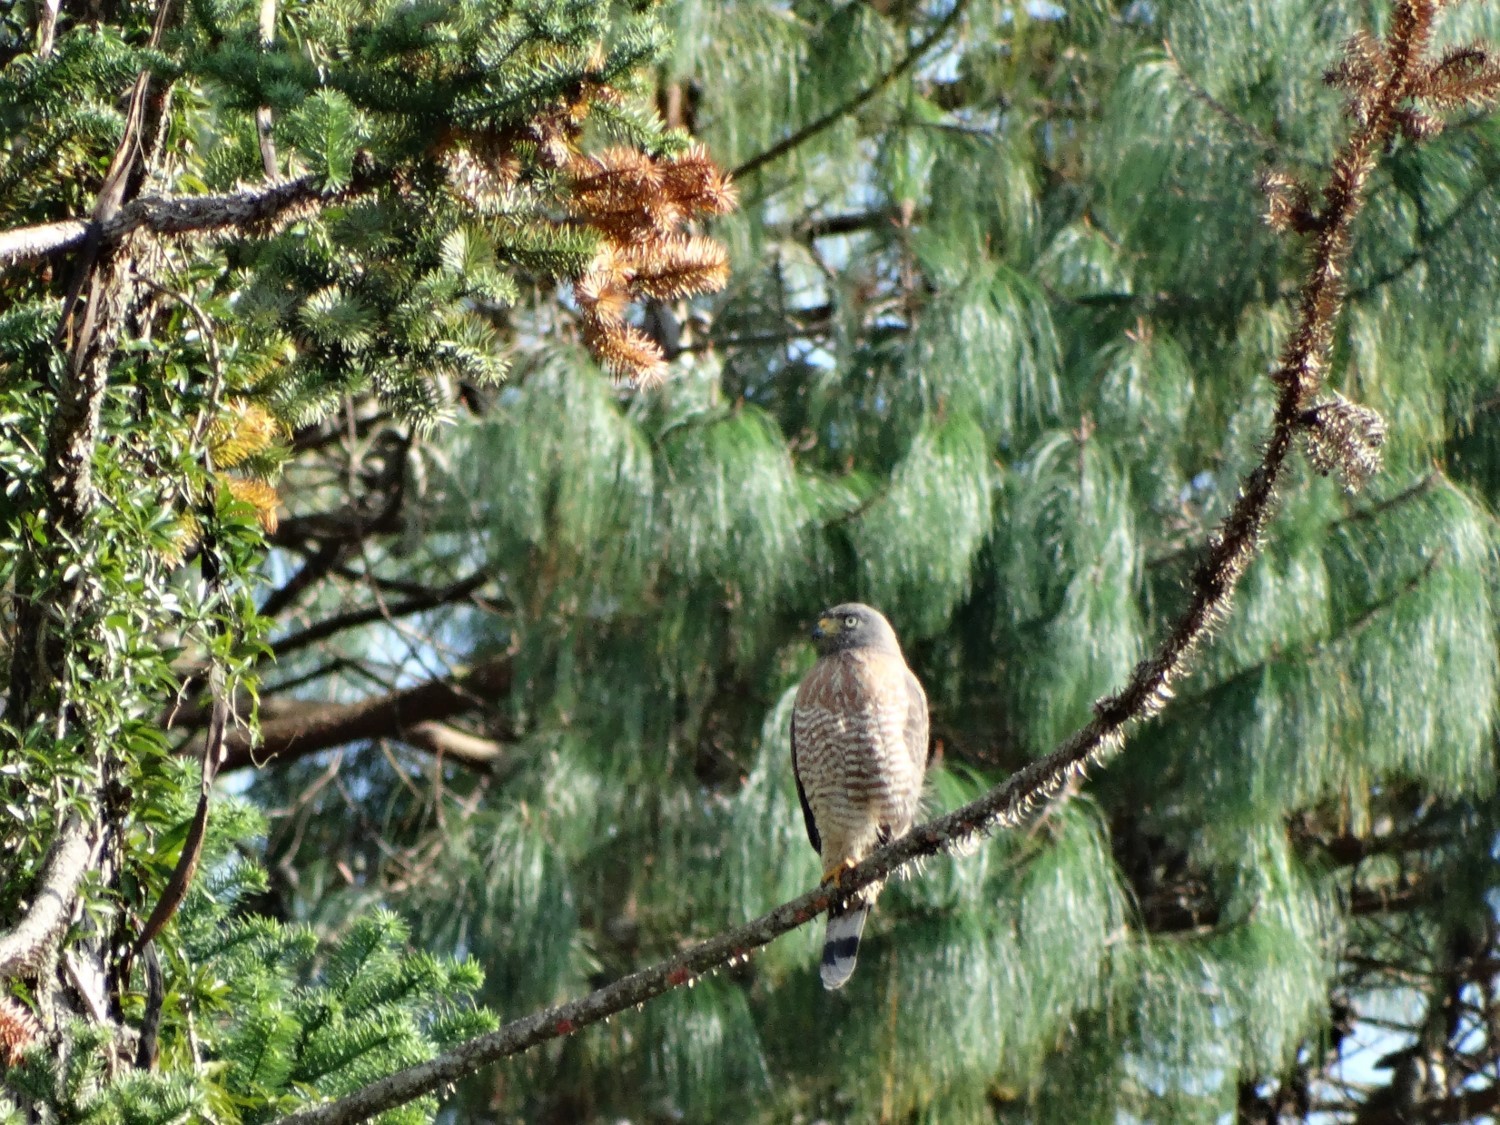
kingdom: Animalia
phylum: Chordata
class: Aves
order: Accipitriformes
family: Accipitridae
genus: Rupornis
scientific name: Rupornis magnirostris
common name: Roadside hawk
